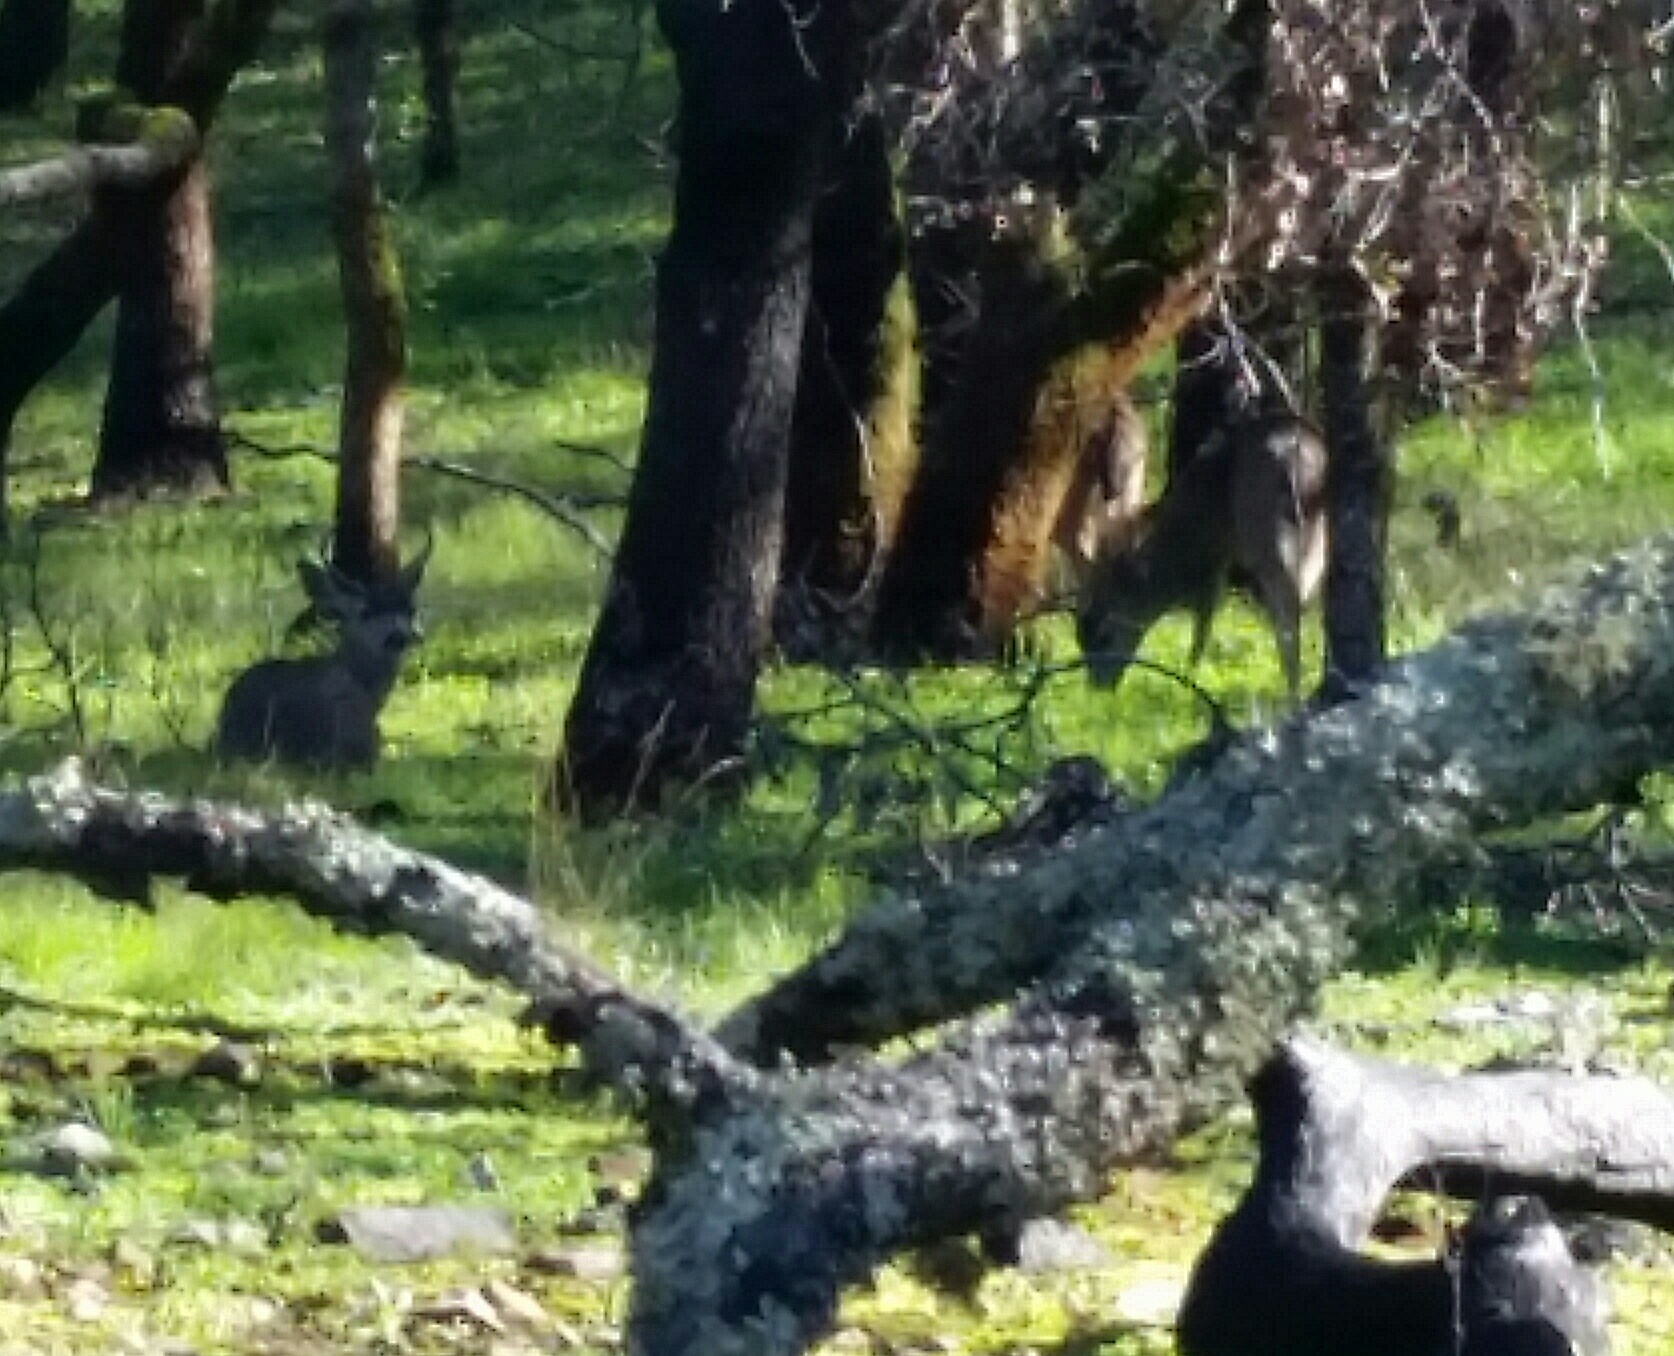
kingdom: Animalia
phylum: Chordata
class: Mammalia
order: Artiodactyla
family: Cervidae
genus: Odocoileus
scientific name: Odocoileus hemionus
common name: Mule deer
